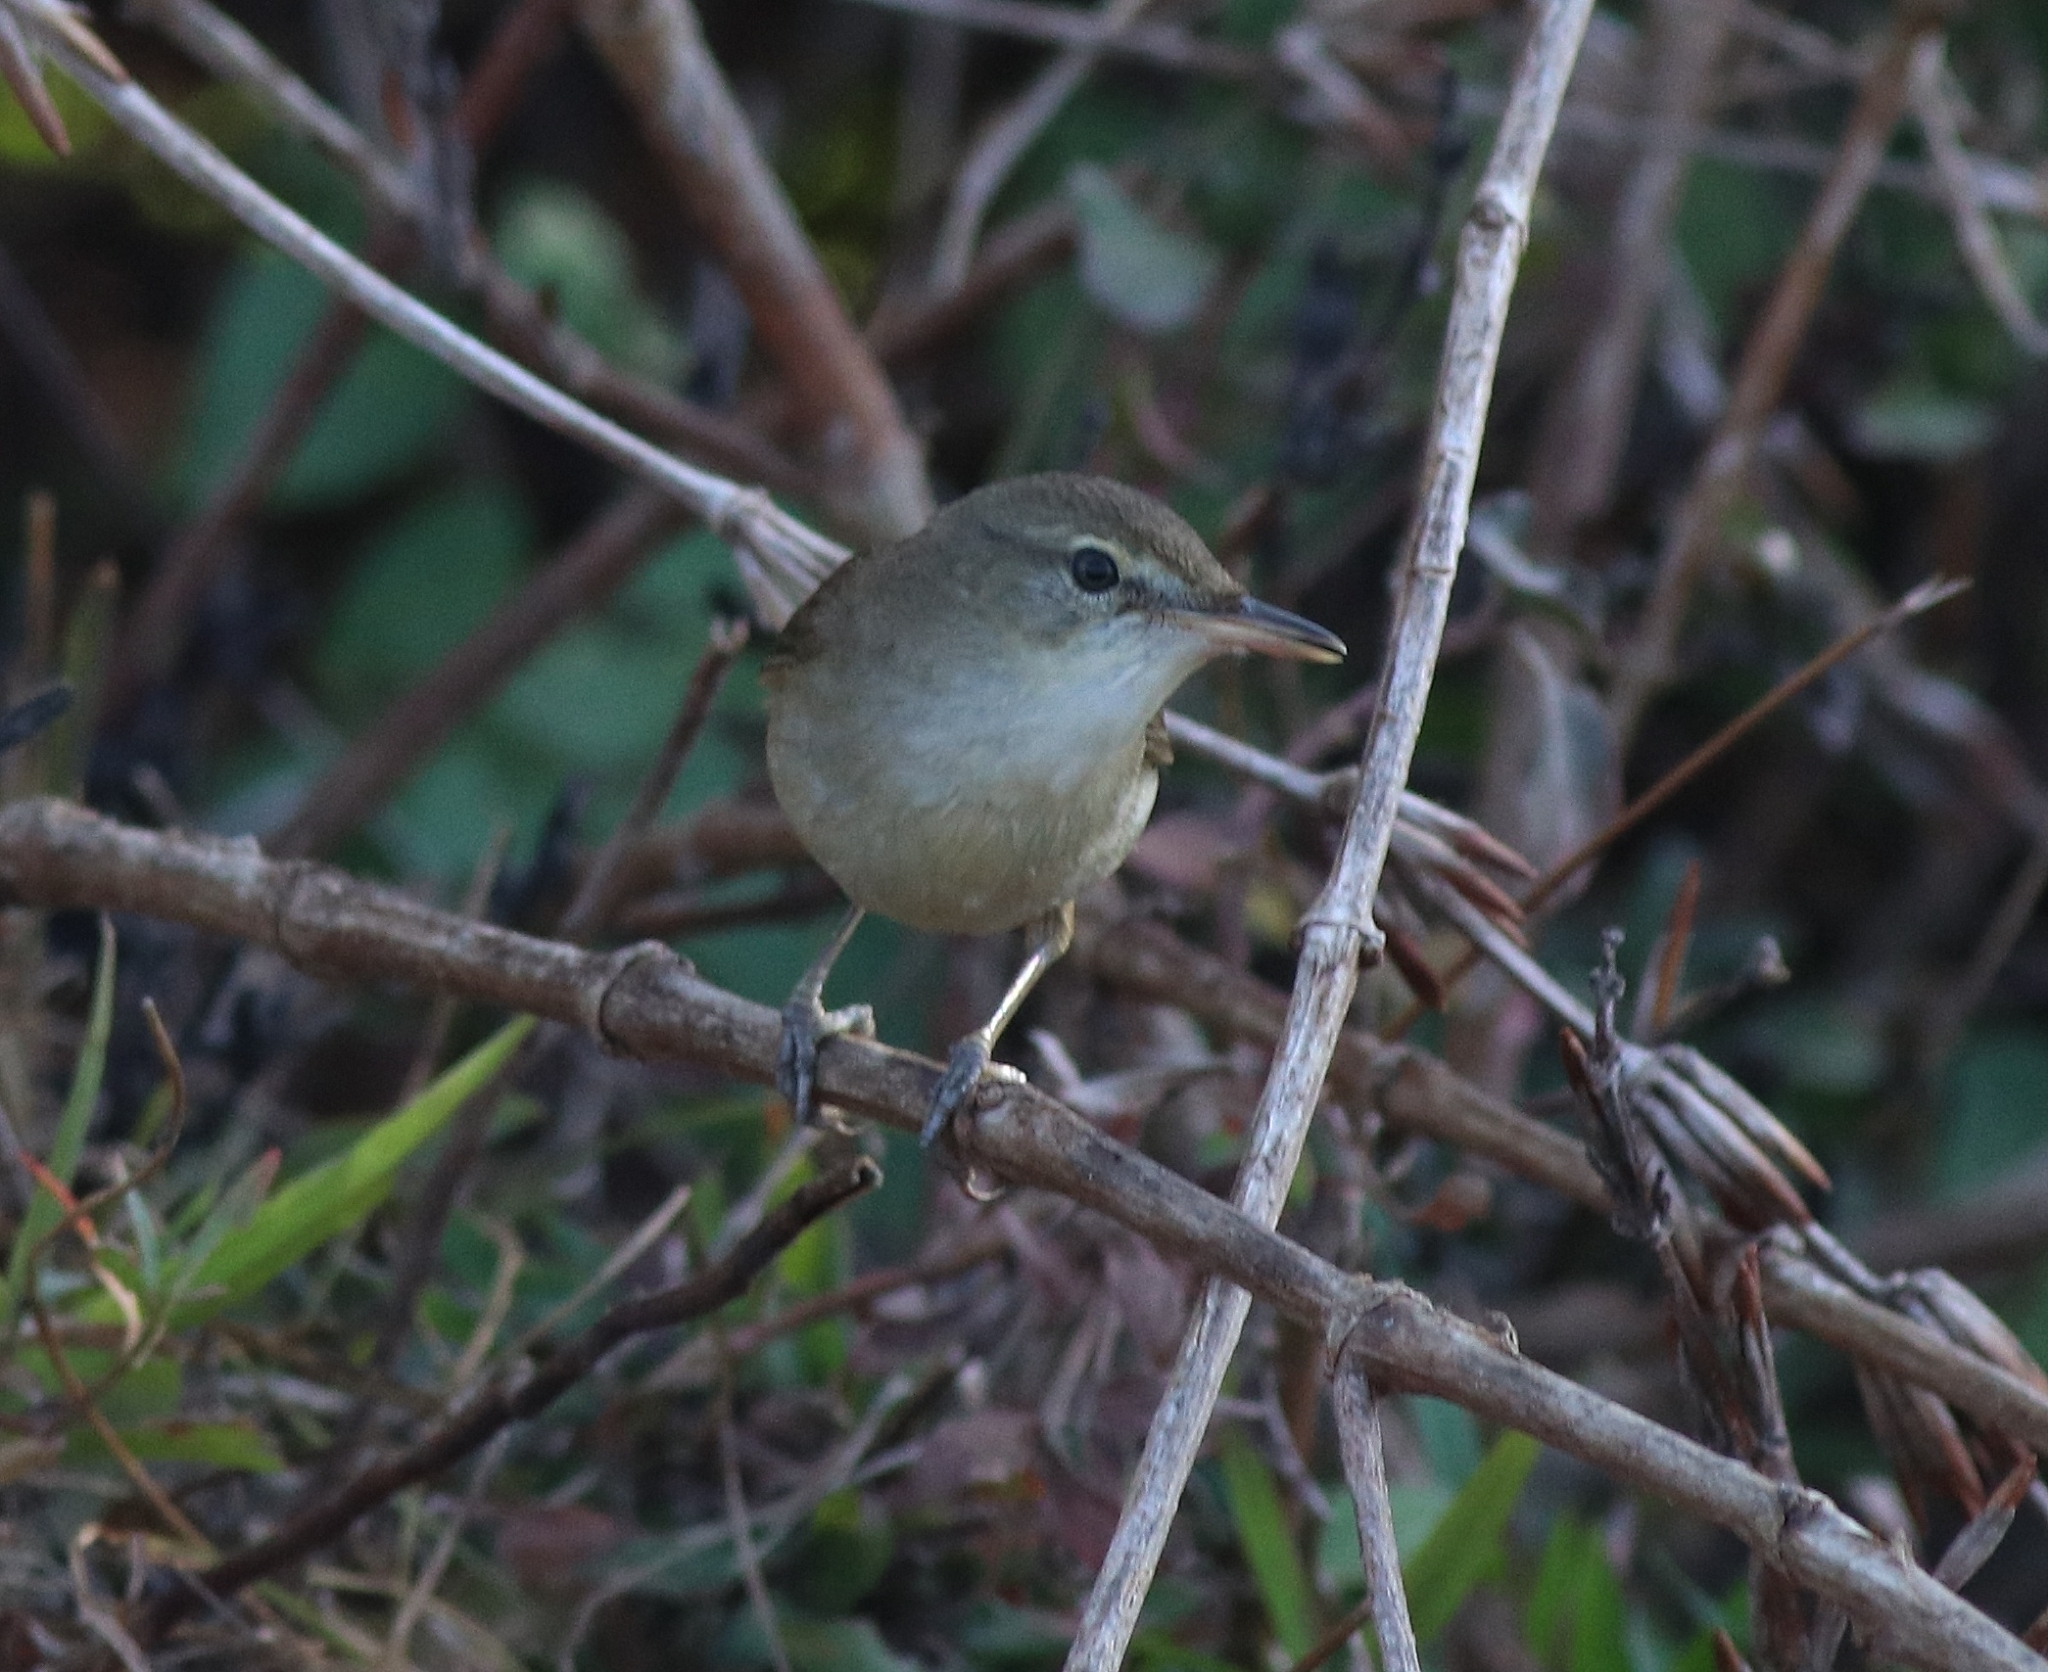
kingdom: Animalia
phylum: Chordata
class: Aves
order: Passeriformes
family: Acrocephalidae
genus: Acrocephalus
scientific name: Acrocephalus dumetorum
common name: Blyth's reed warbler
